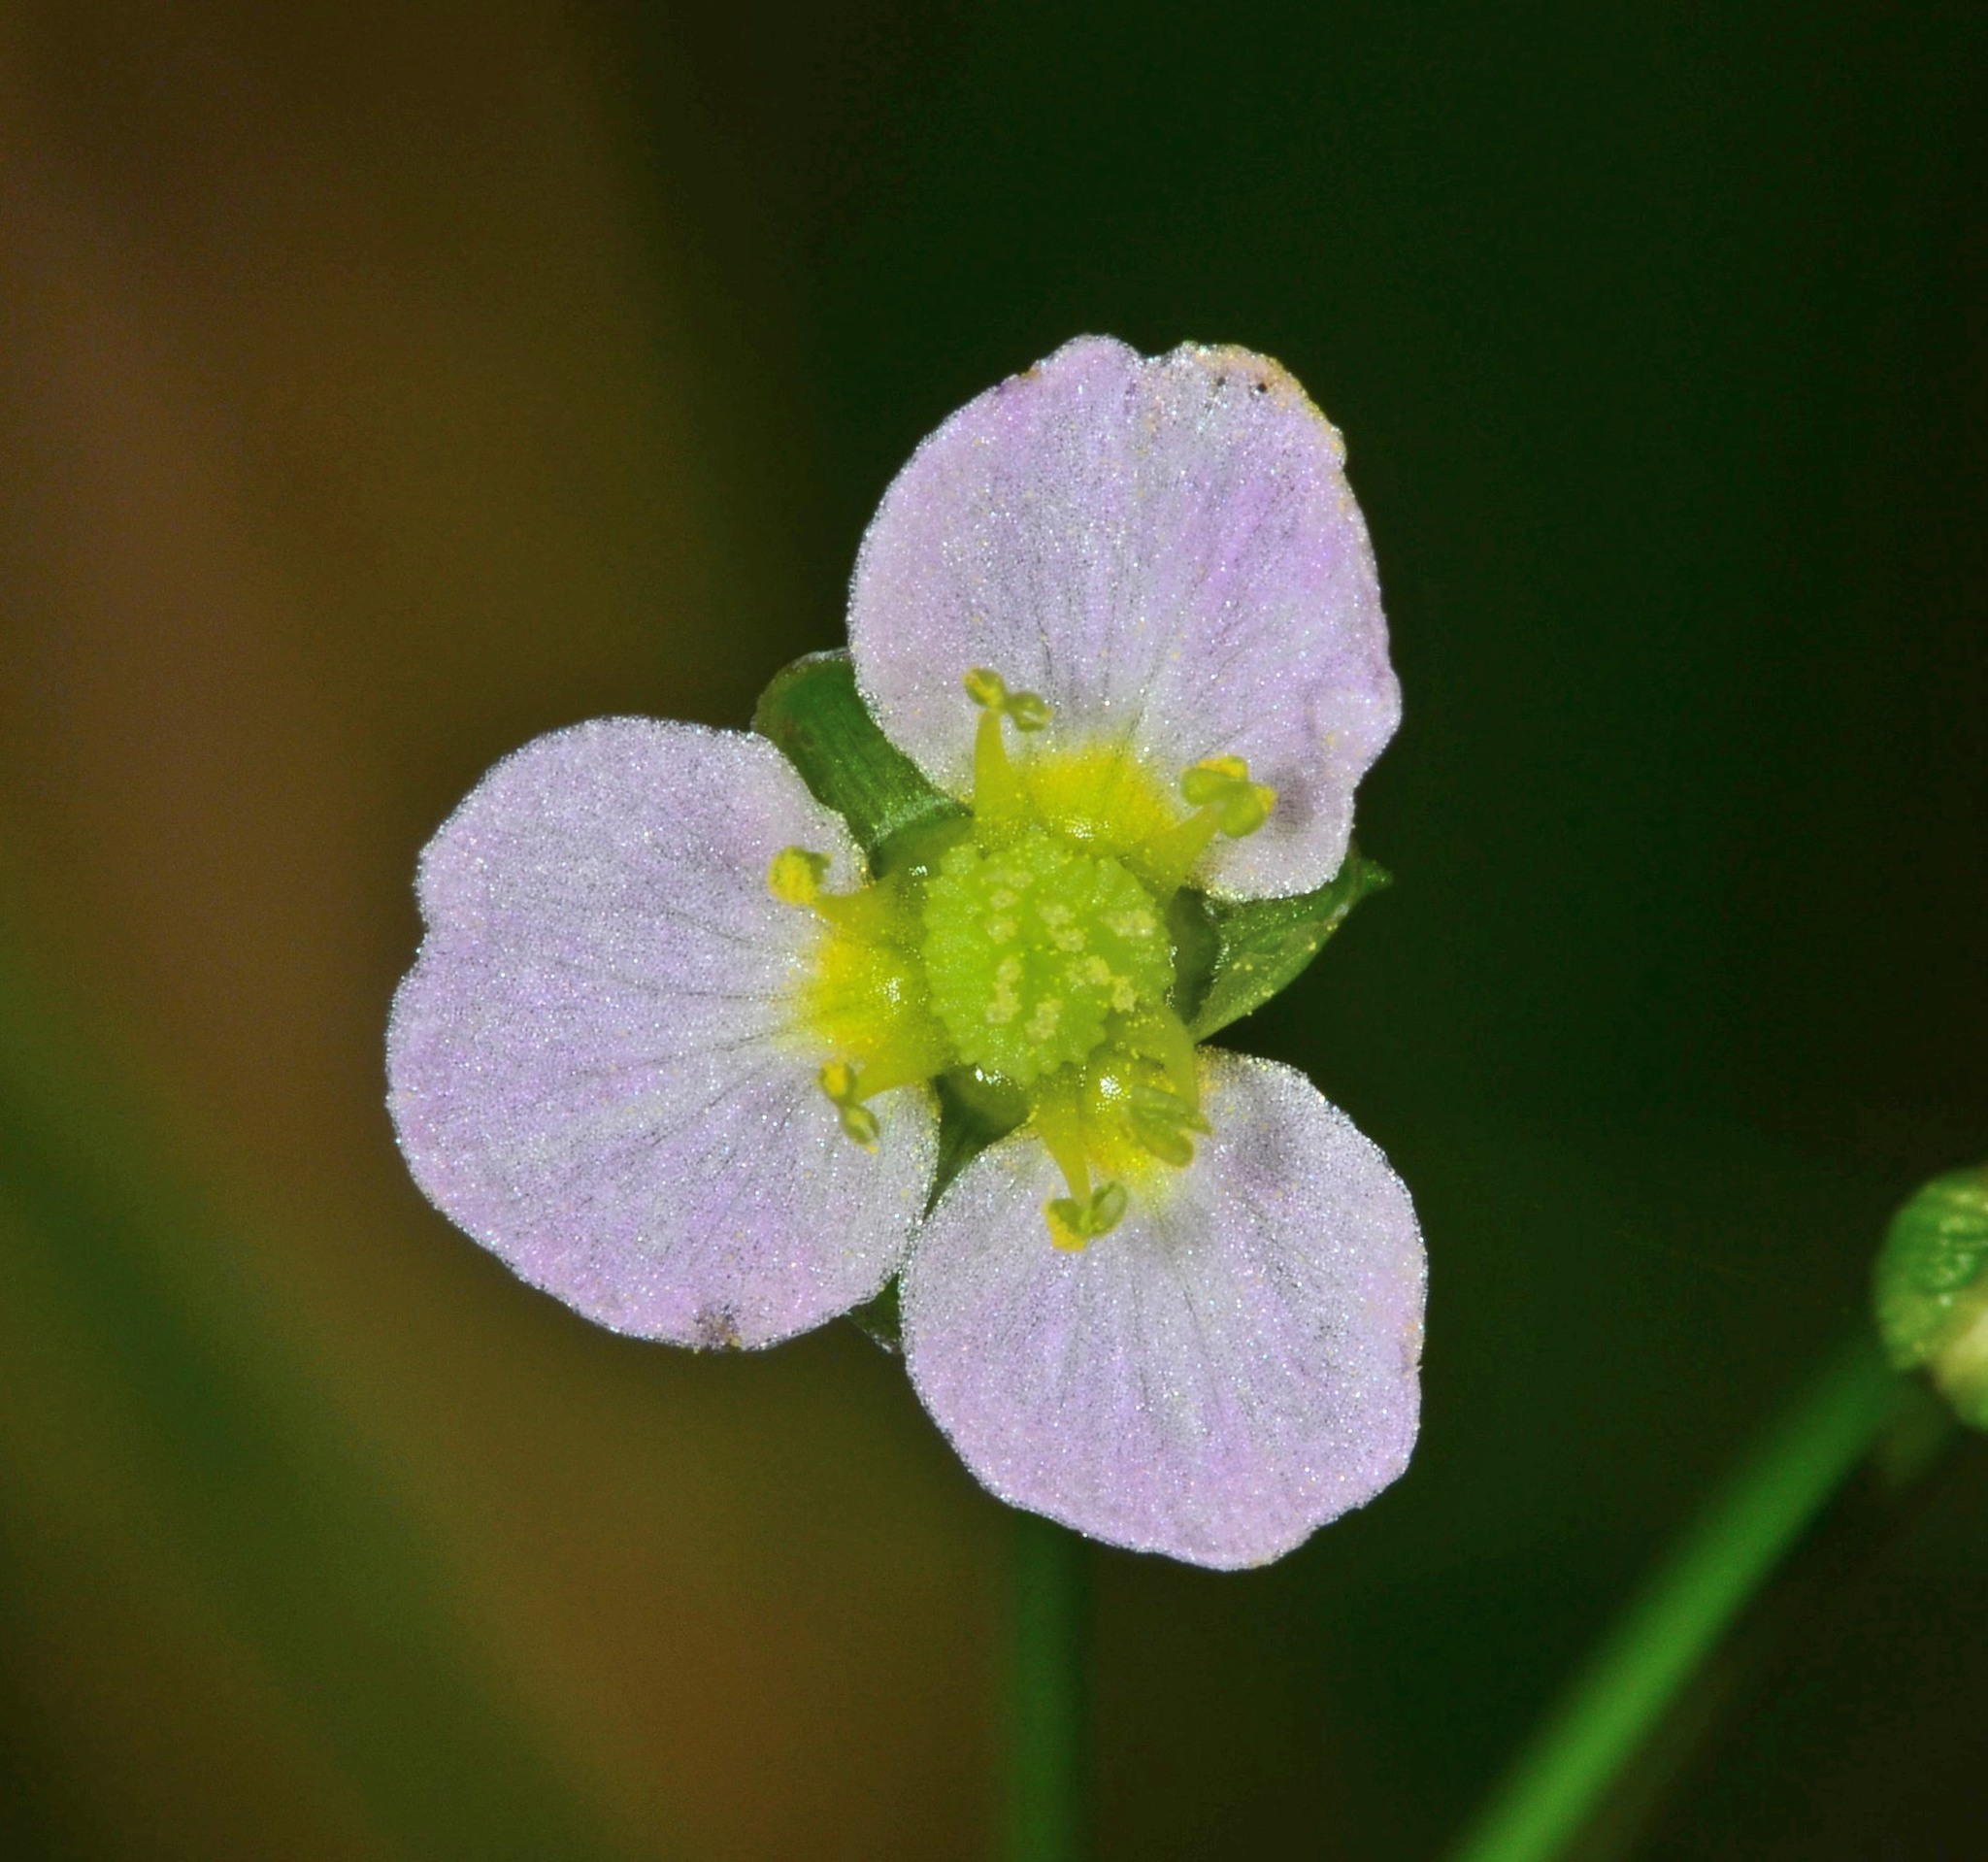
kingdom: Plantae
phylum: Tracheophyta
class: Liliopsida
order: Alismatales
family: Alismataceae
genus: Alisma
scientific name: Alisma triviale
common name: Northern water-plantain
